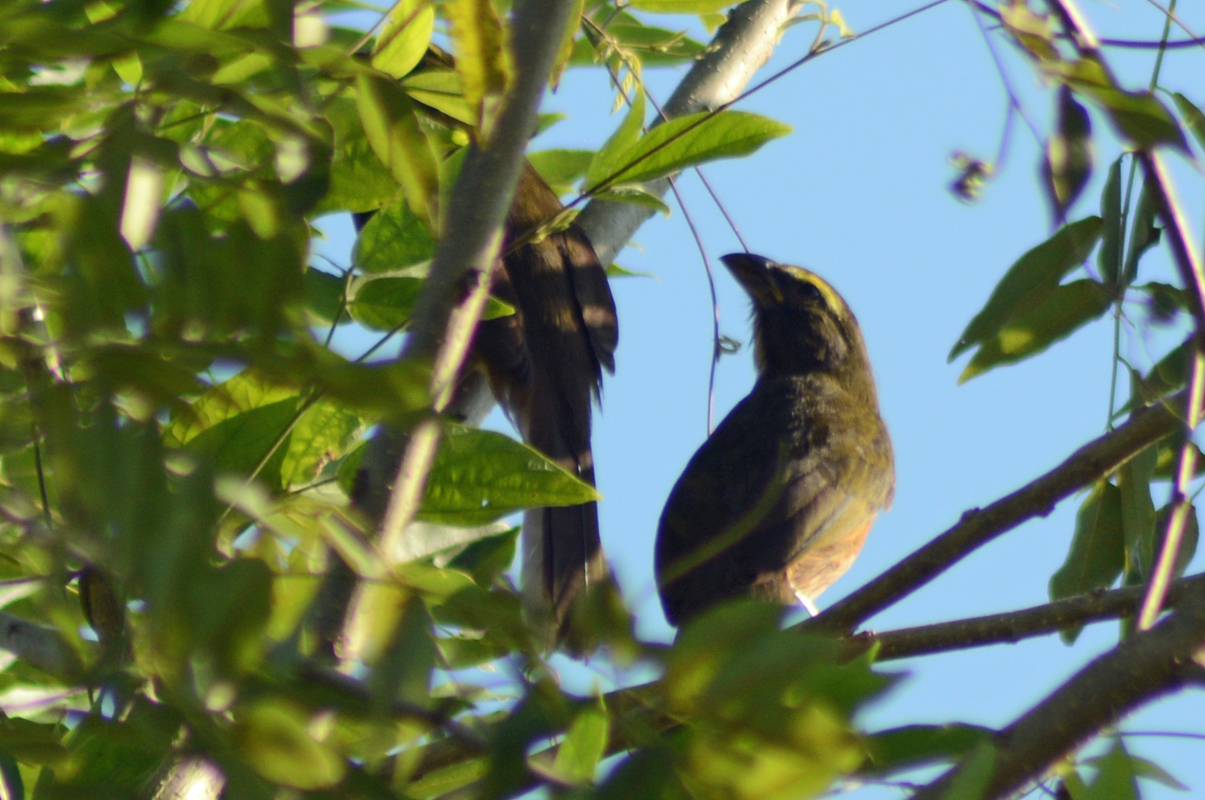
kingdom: Animalia
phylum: Chordata
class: Aves
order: Passeriformes
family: Thraupidae
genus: Saltator
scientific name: Saltator grandis
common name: Cinnamon-bellied saltator
